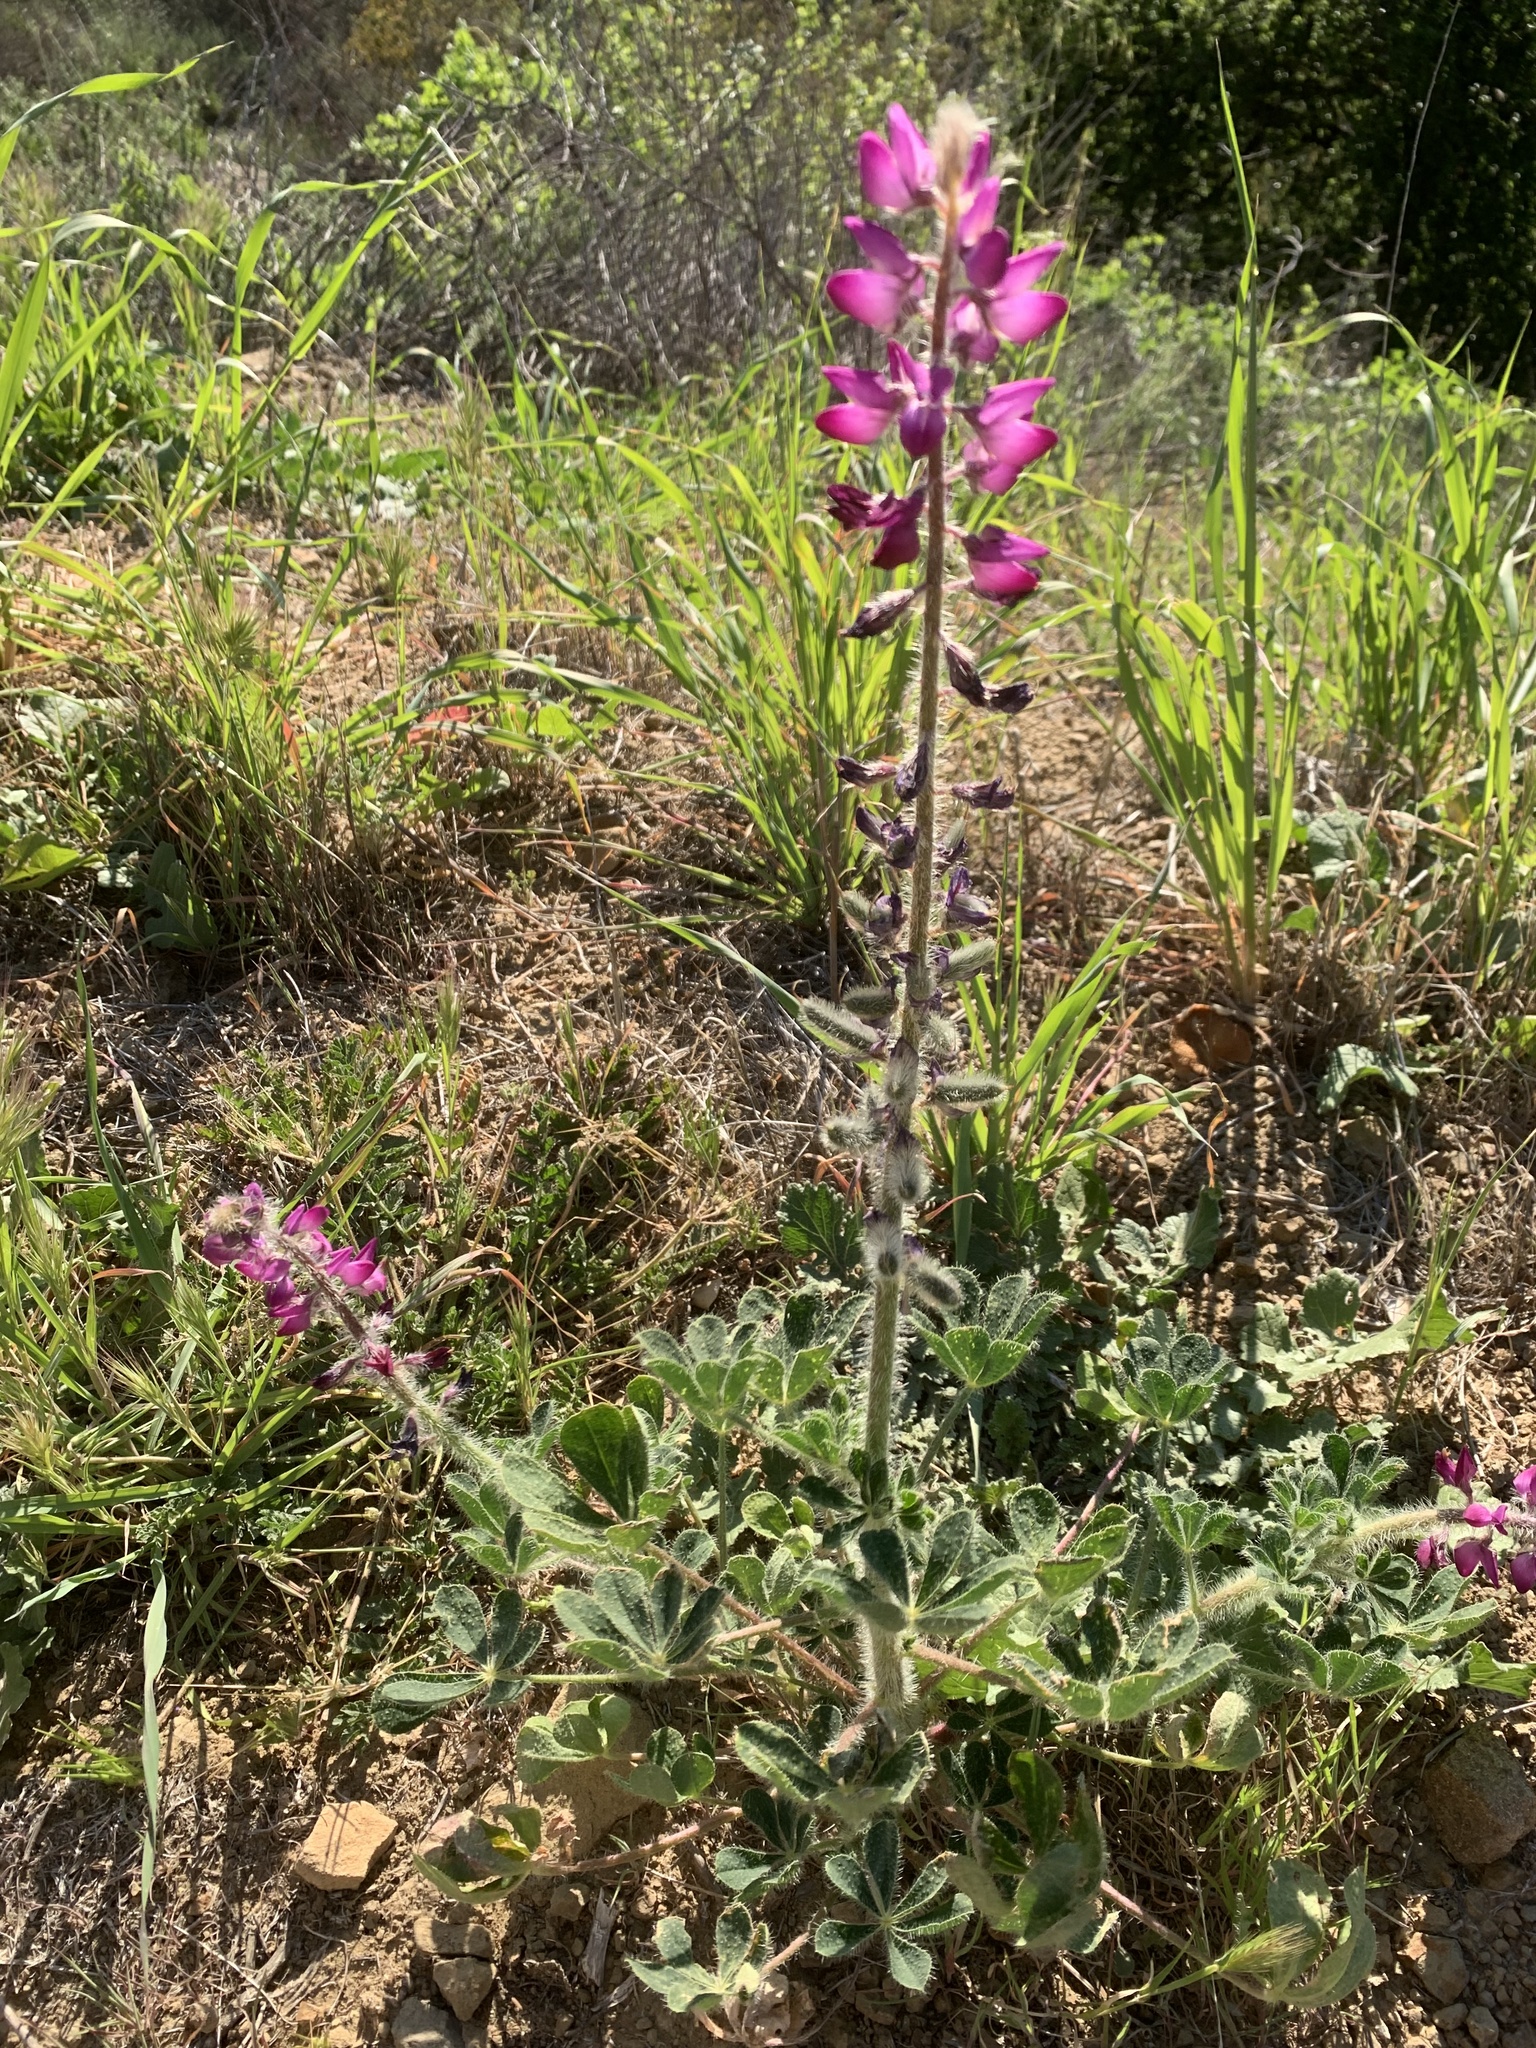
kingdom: Plantae
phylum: Tracheophyta
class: Magnoliopsida
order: Fabales
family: Fabaceae
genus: Lupinus
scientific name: Lupinus hirsutissimus
